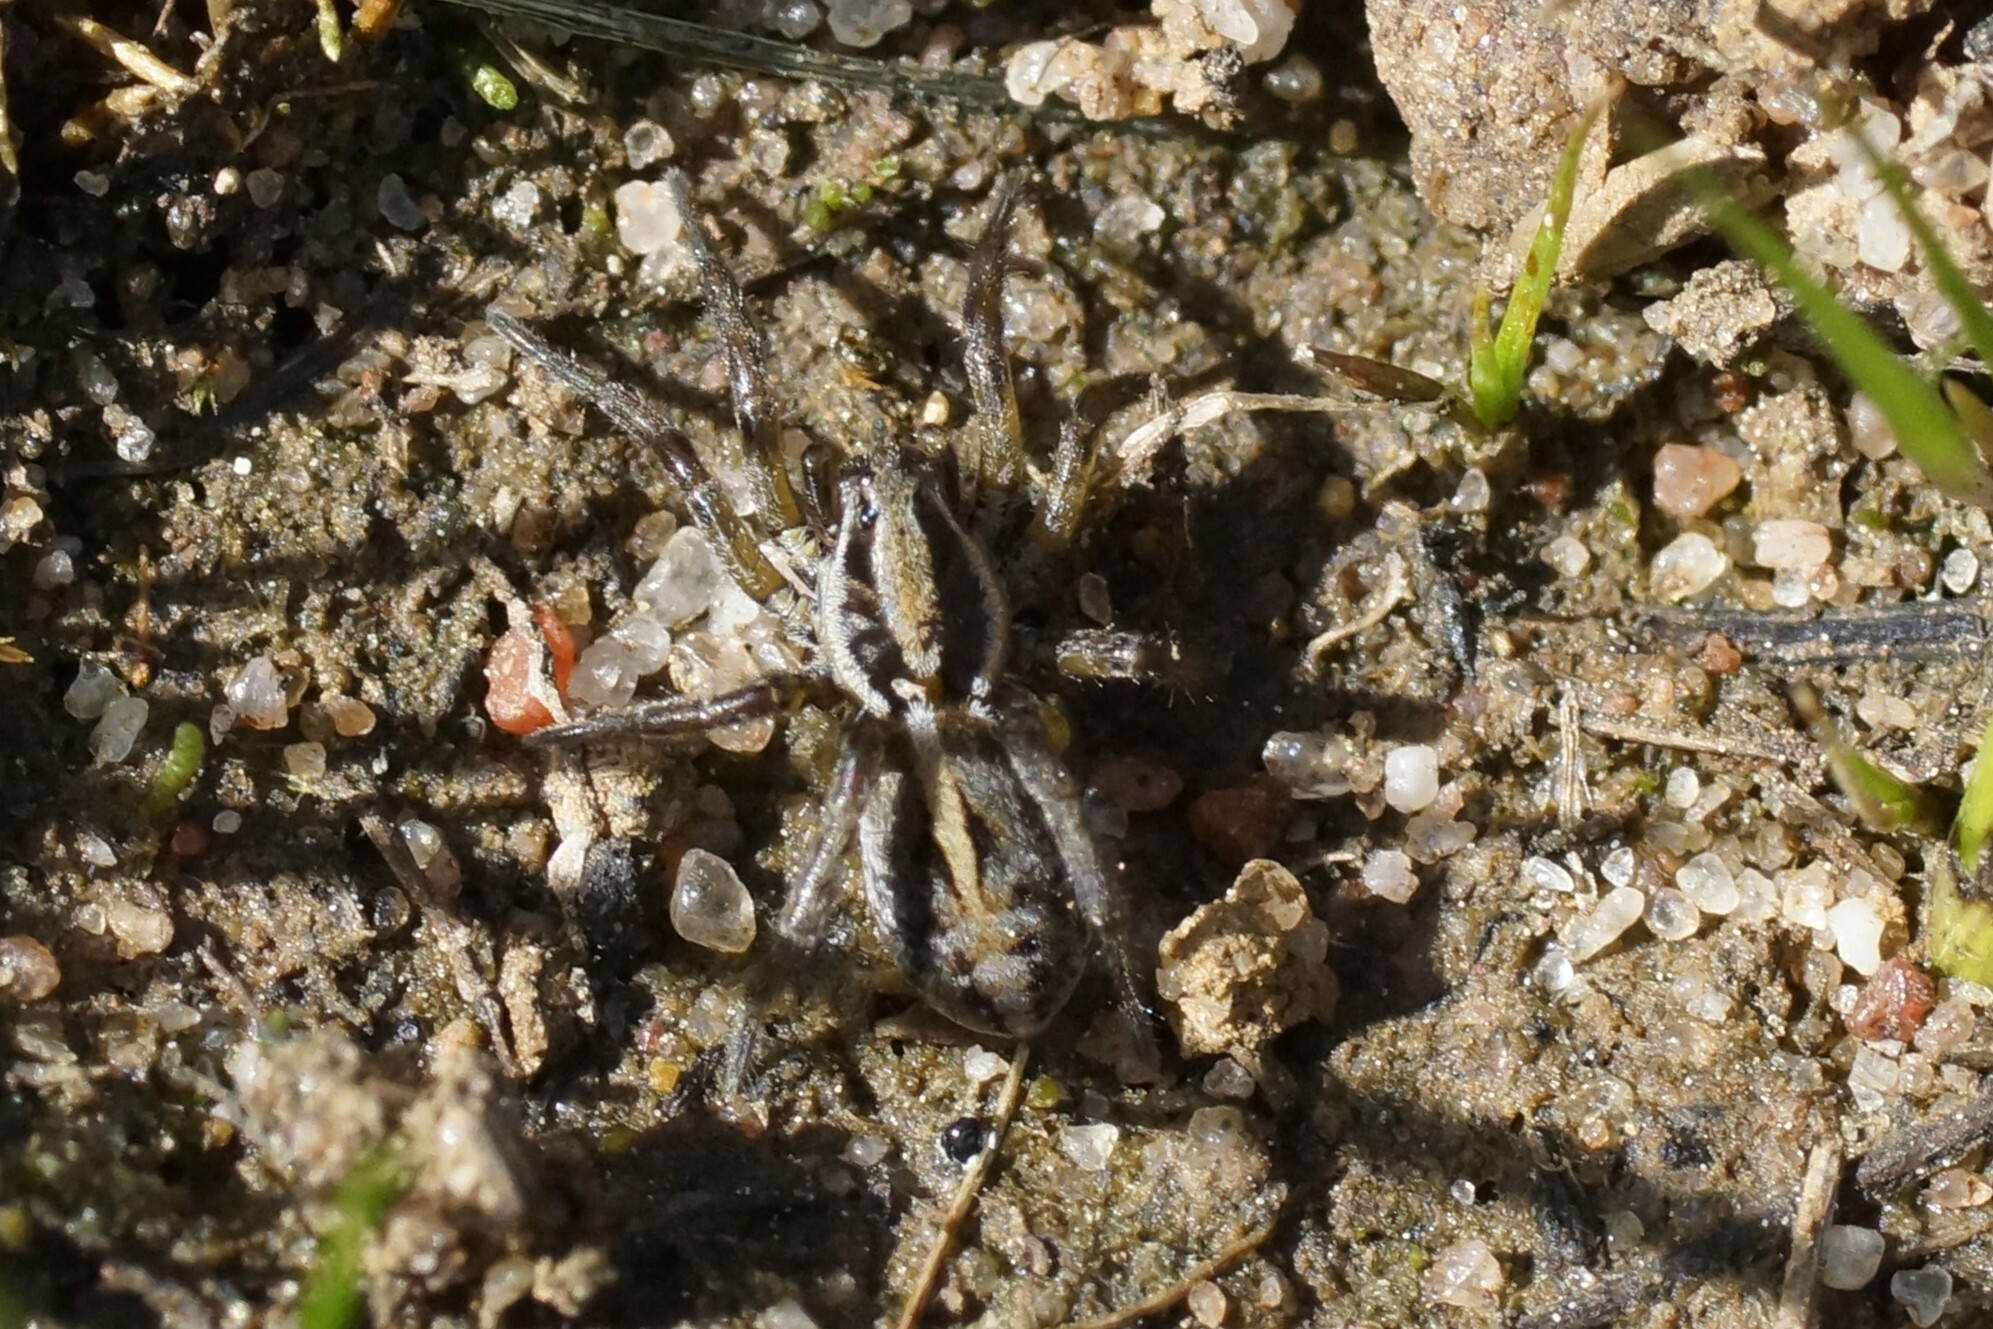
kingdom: Animalia
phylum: Arthropoda
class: Arachnida
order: Araneae
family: Lycosidae
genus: Artoriopsis
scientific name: Artoriopsis expolita
